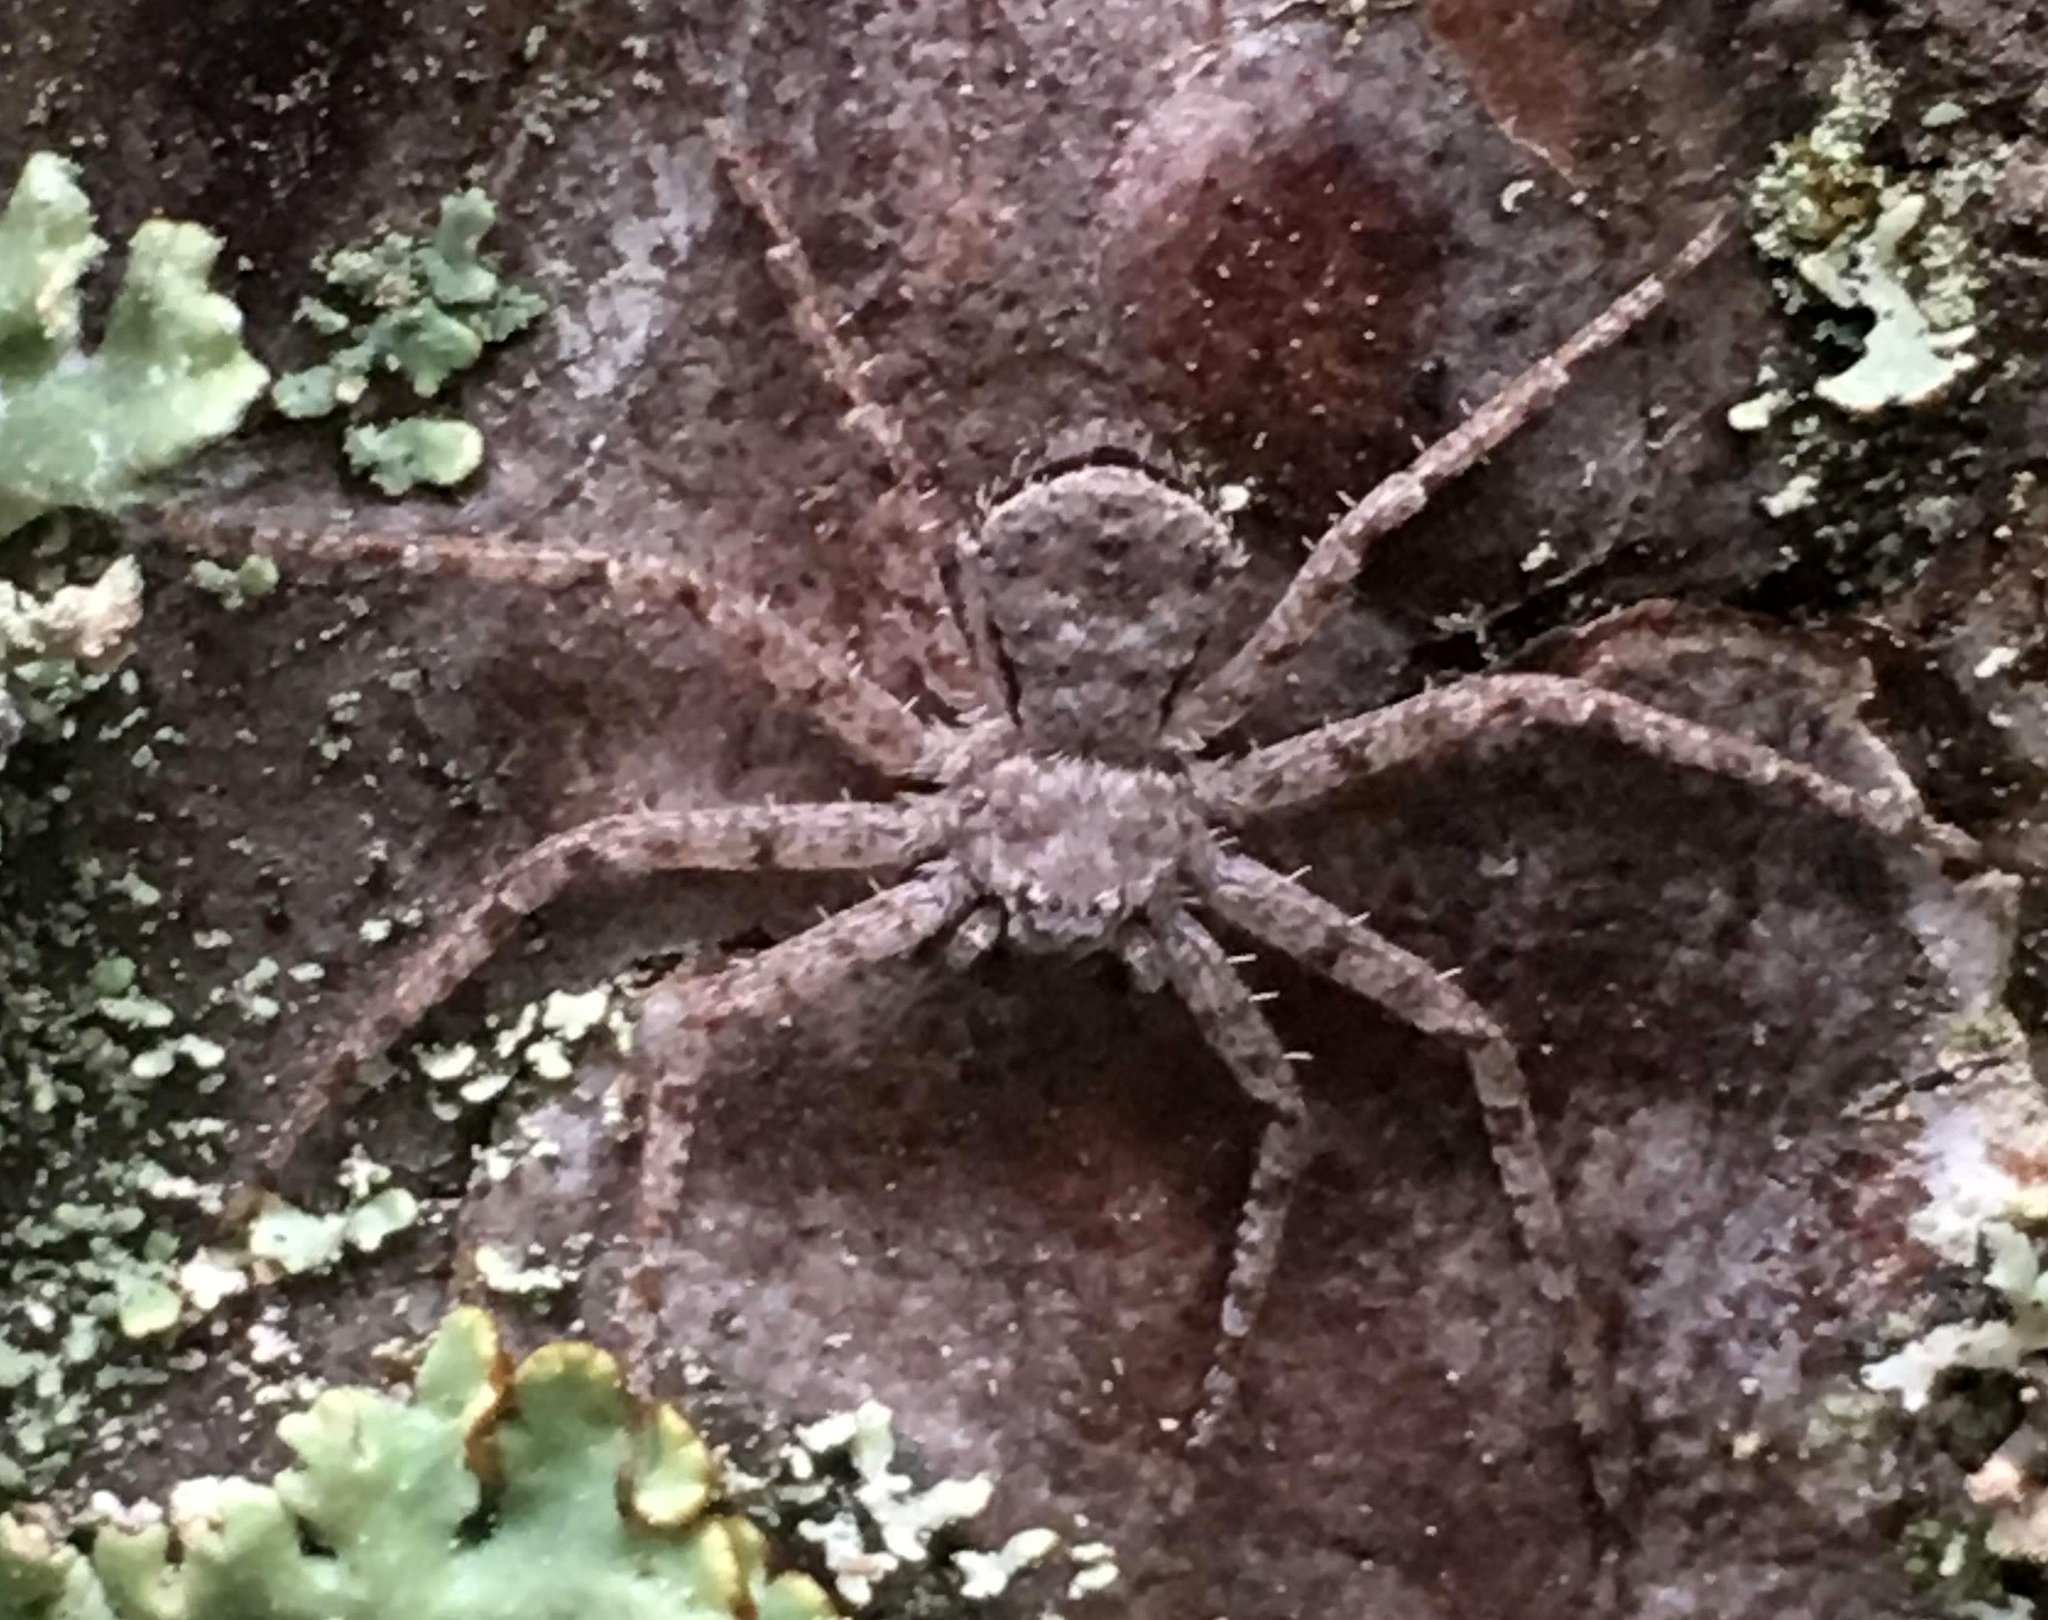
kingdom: Animalia
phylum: Arthropoda
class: Arachnida
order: Araneae
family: Philodromidae
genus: Philodromus
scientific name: Philodromus margaritatus
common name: Lichen running-spider
